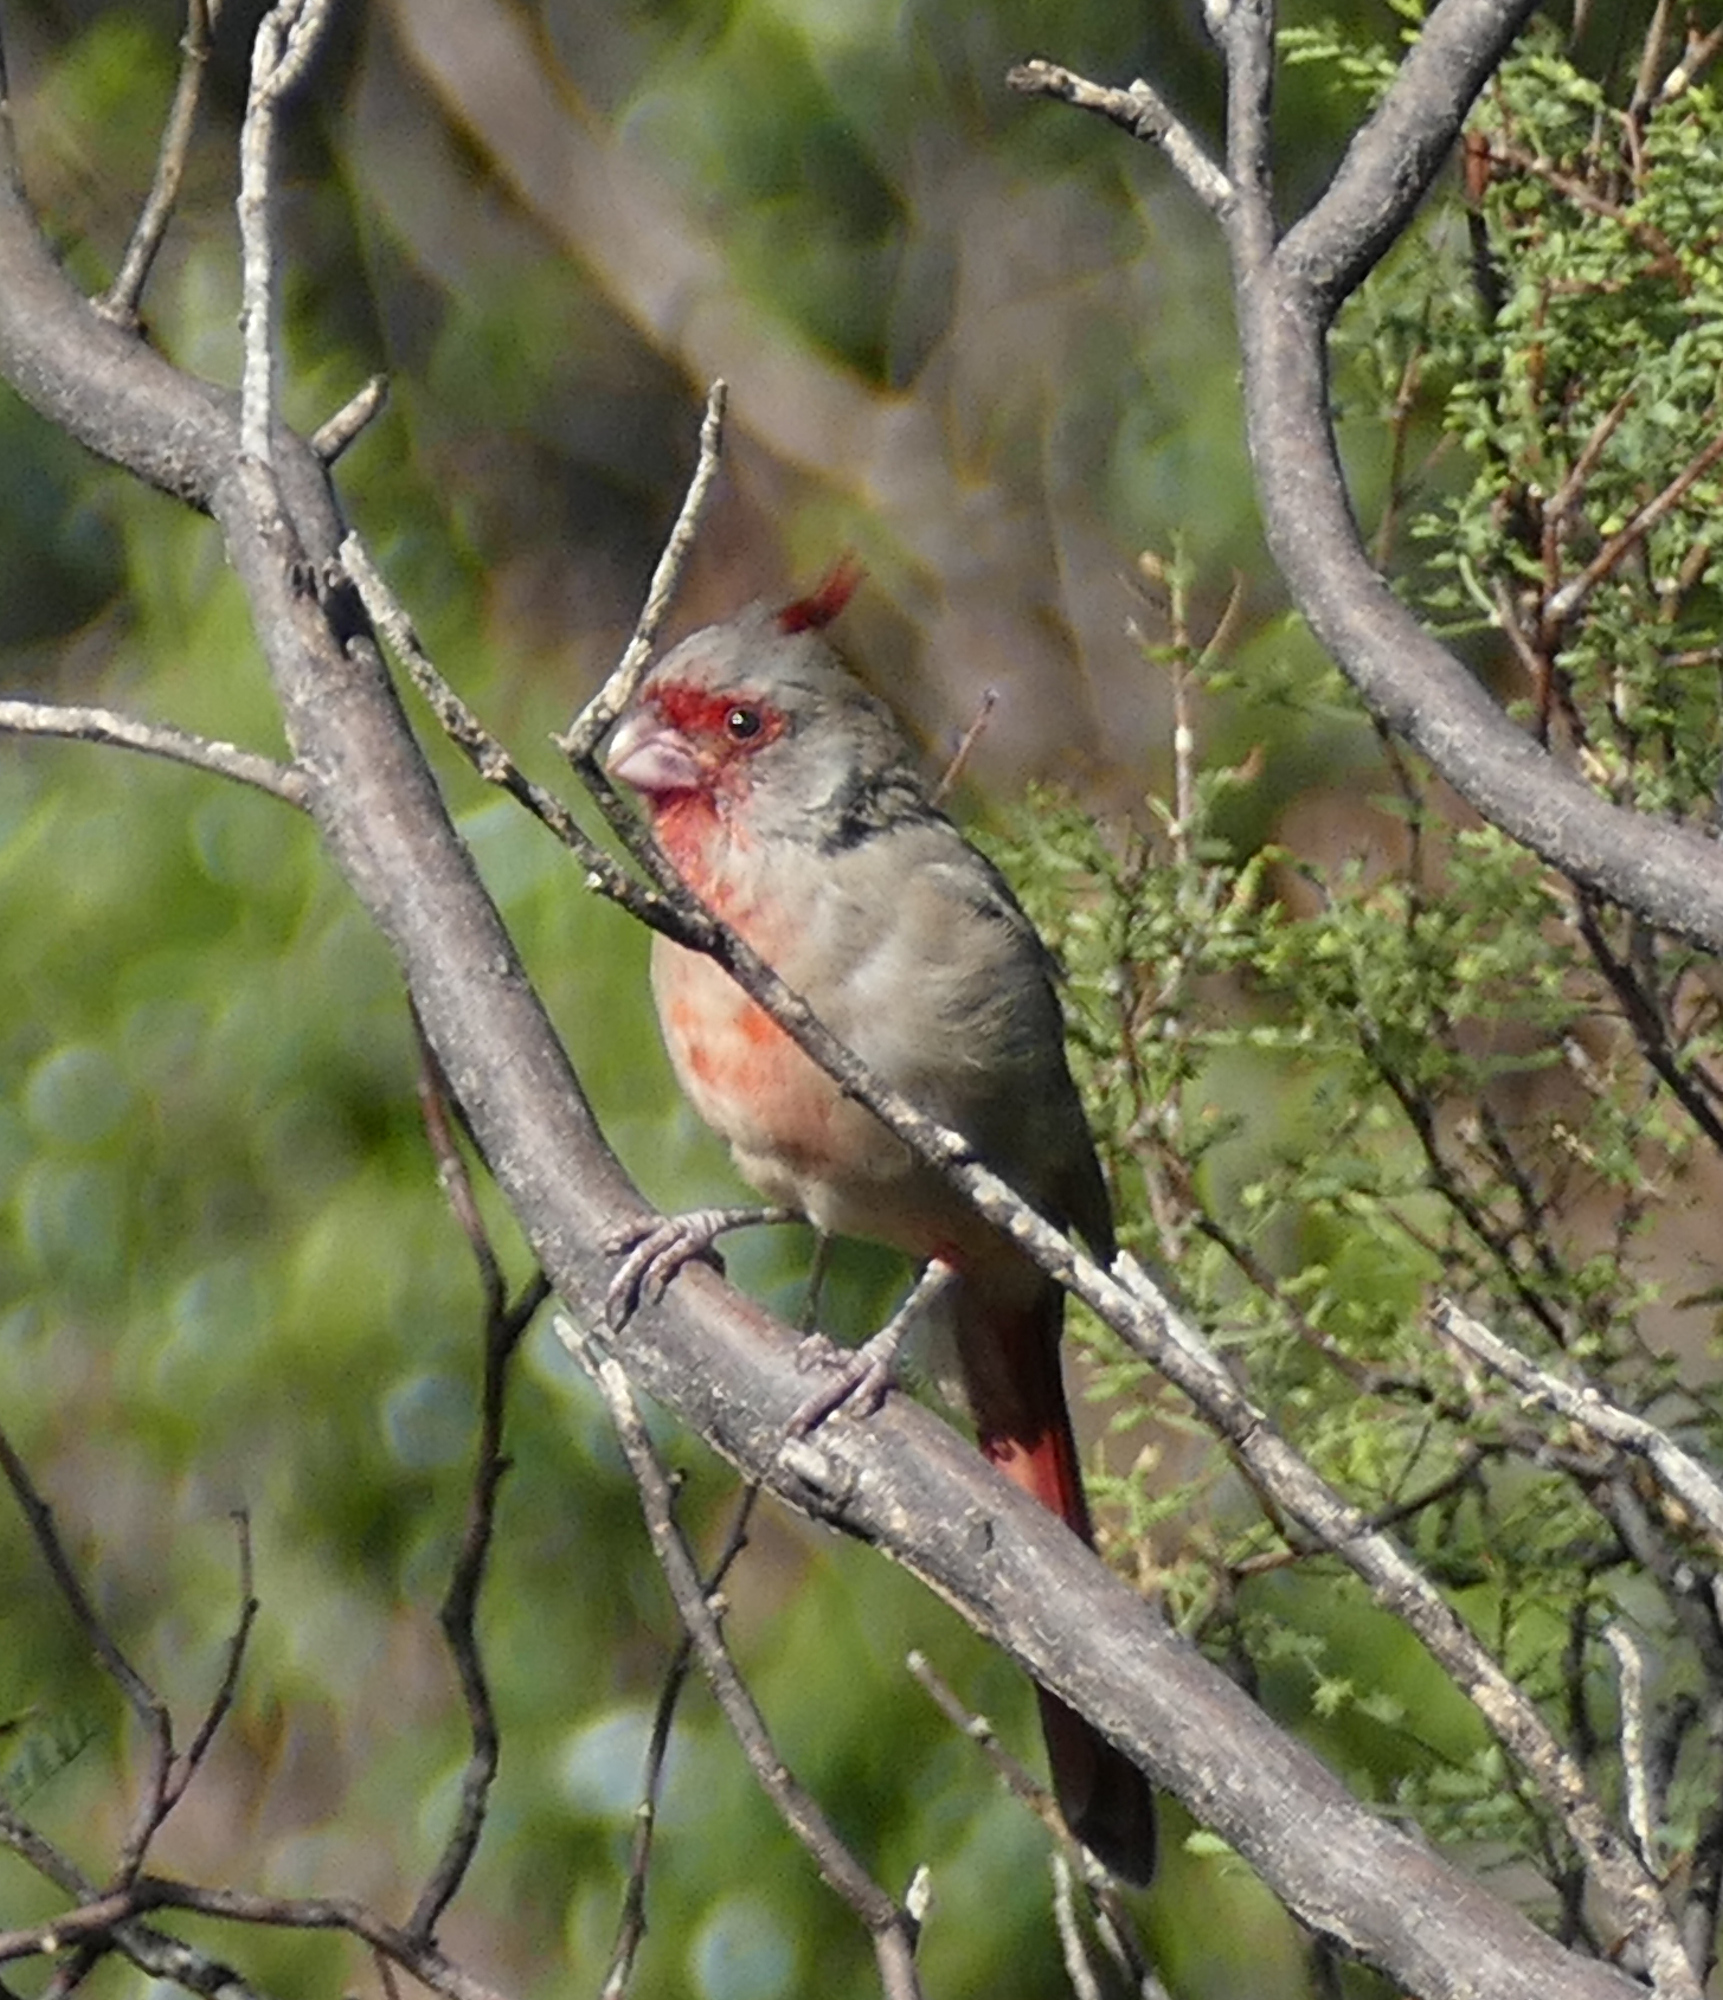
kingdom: Animalia
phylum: Chordata
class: Aves
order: Passeriformes
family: Cardinalidae
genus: Cardinalis
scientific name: Cardinalis sinuatus
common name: Pyrrhuloxia
